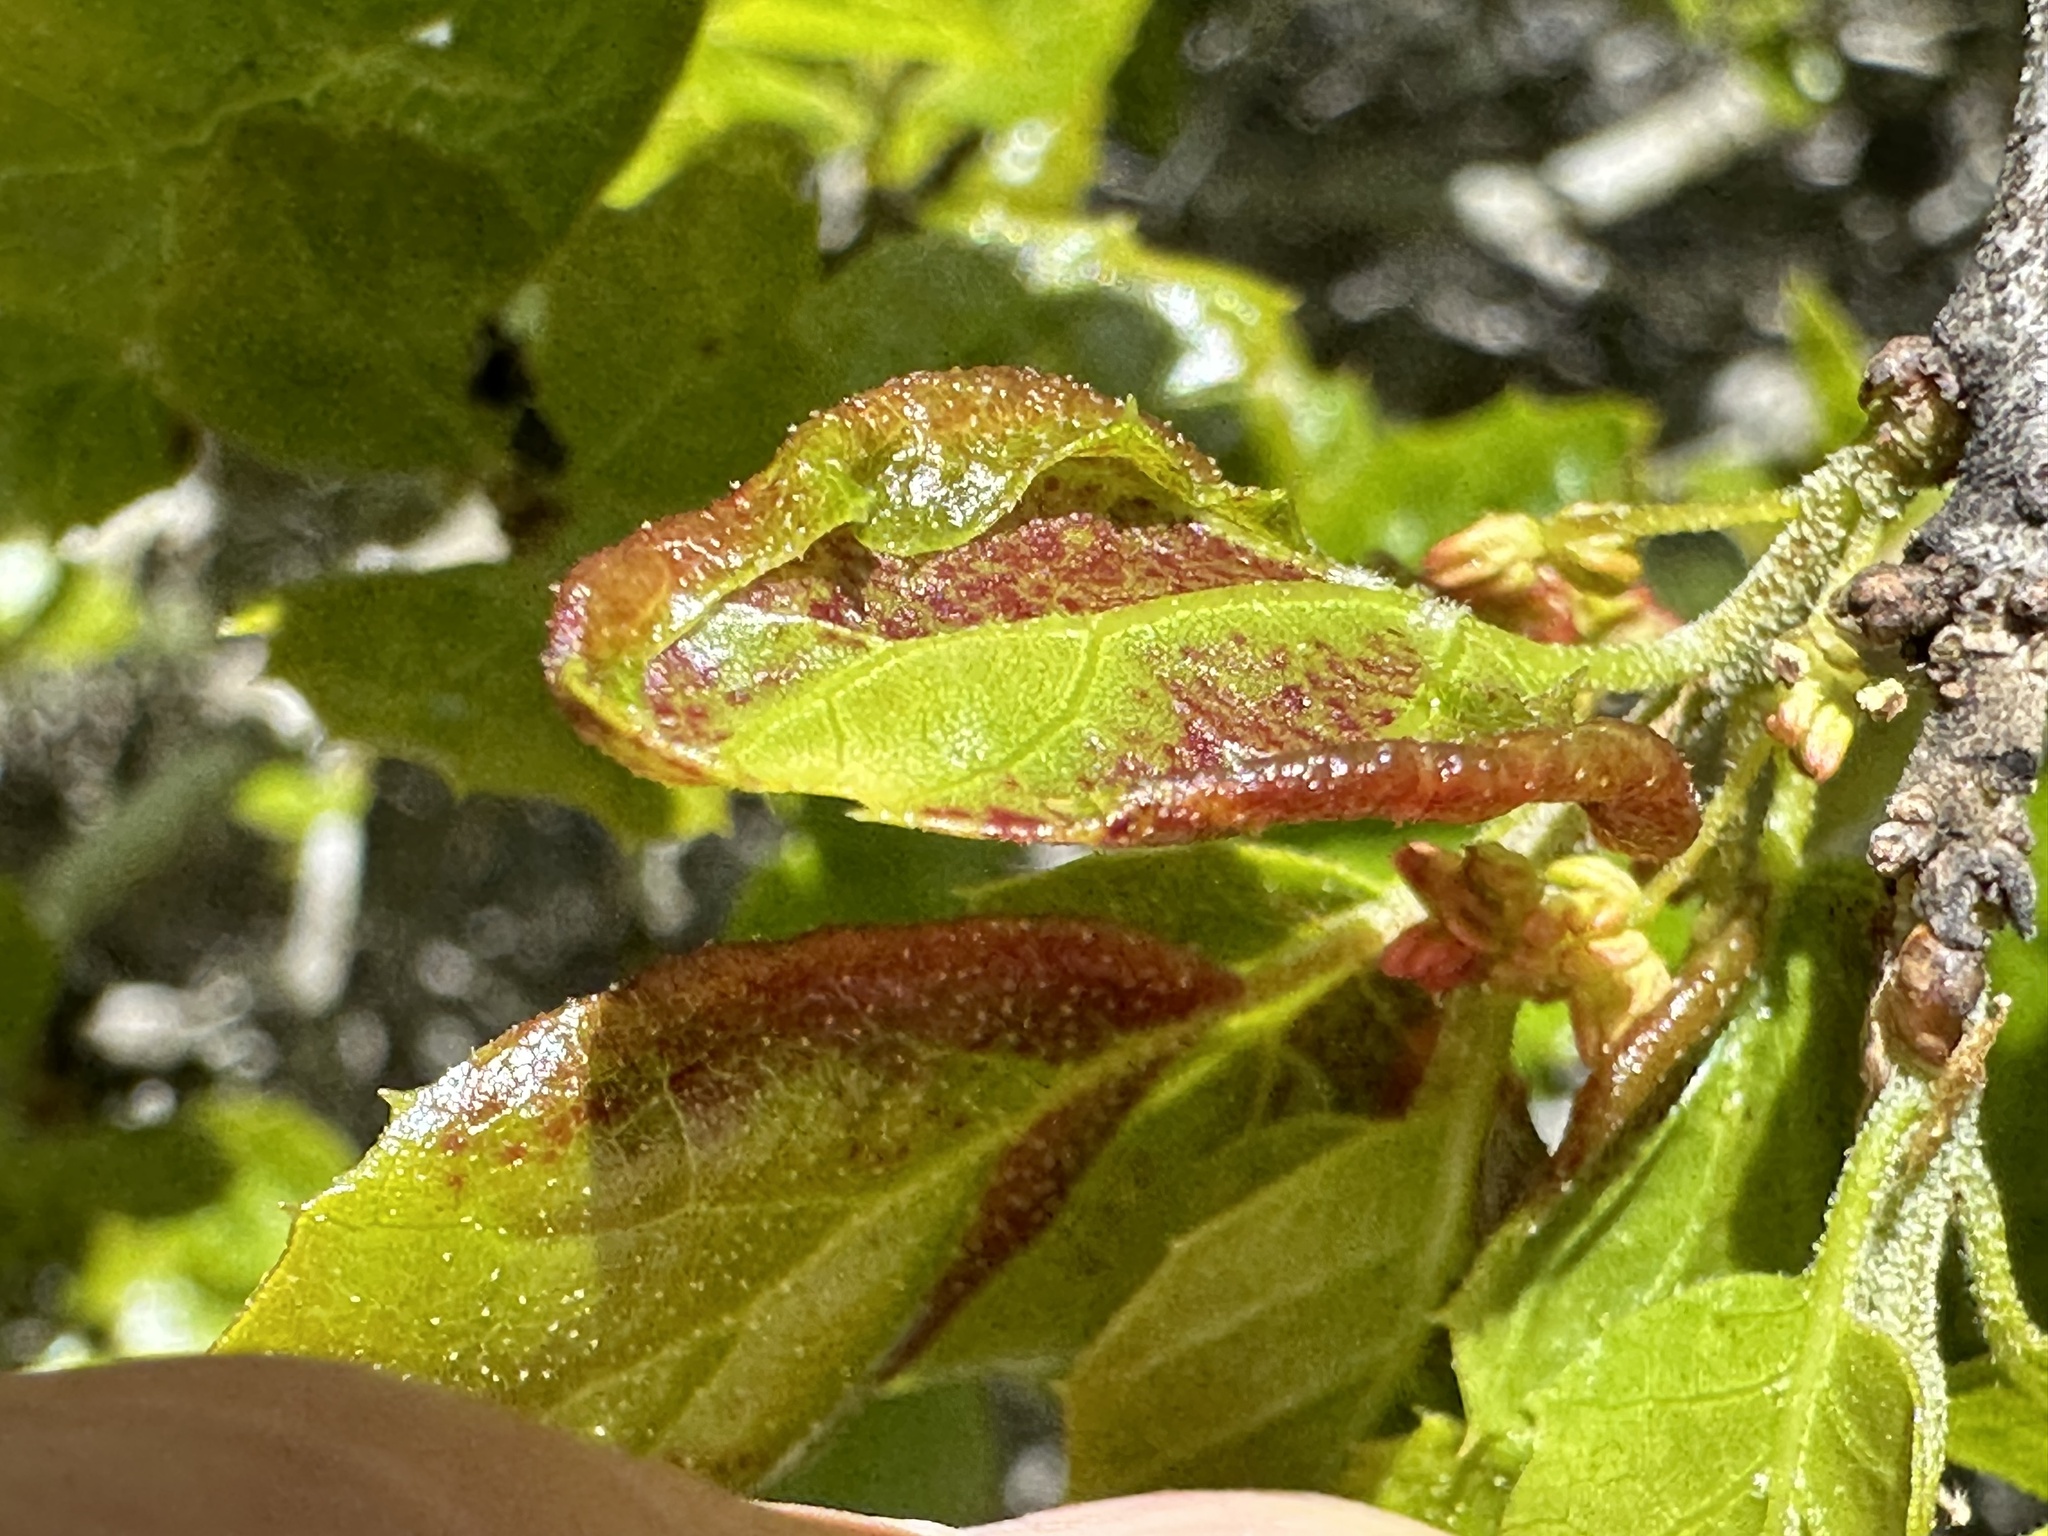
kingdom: Animalia
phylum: Arthropoda
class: Insecta
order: Hemiptera
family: Aphididae
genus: Stegophylla
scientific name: Stegophylla essigi
